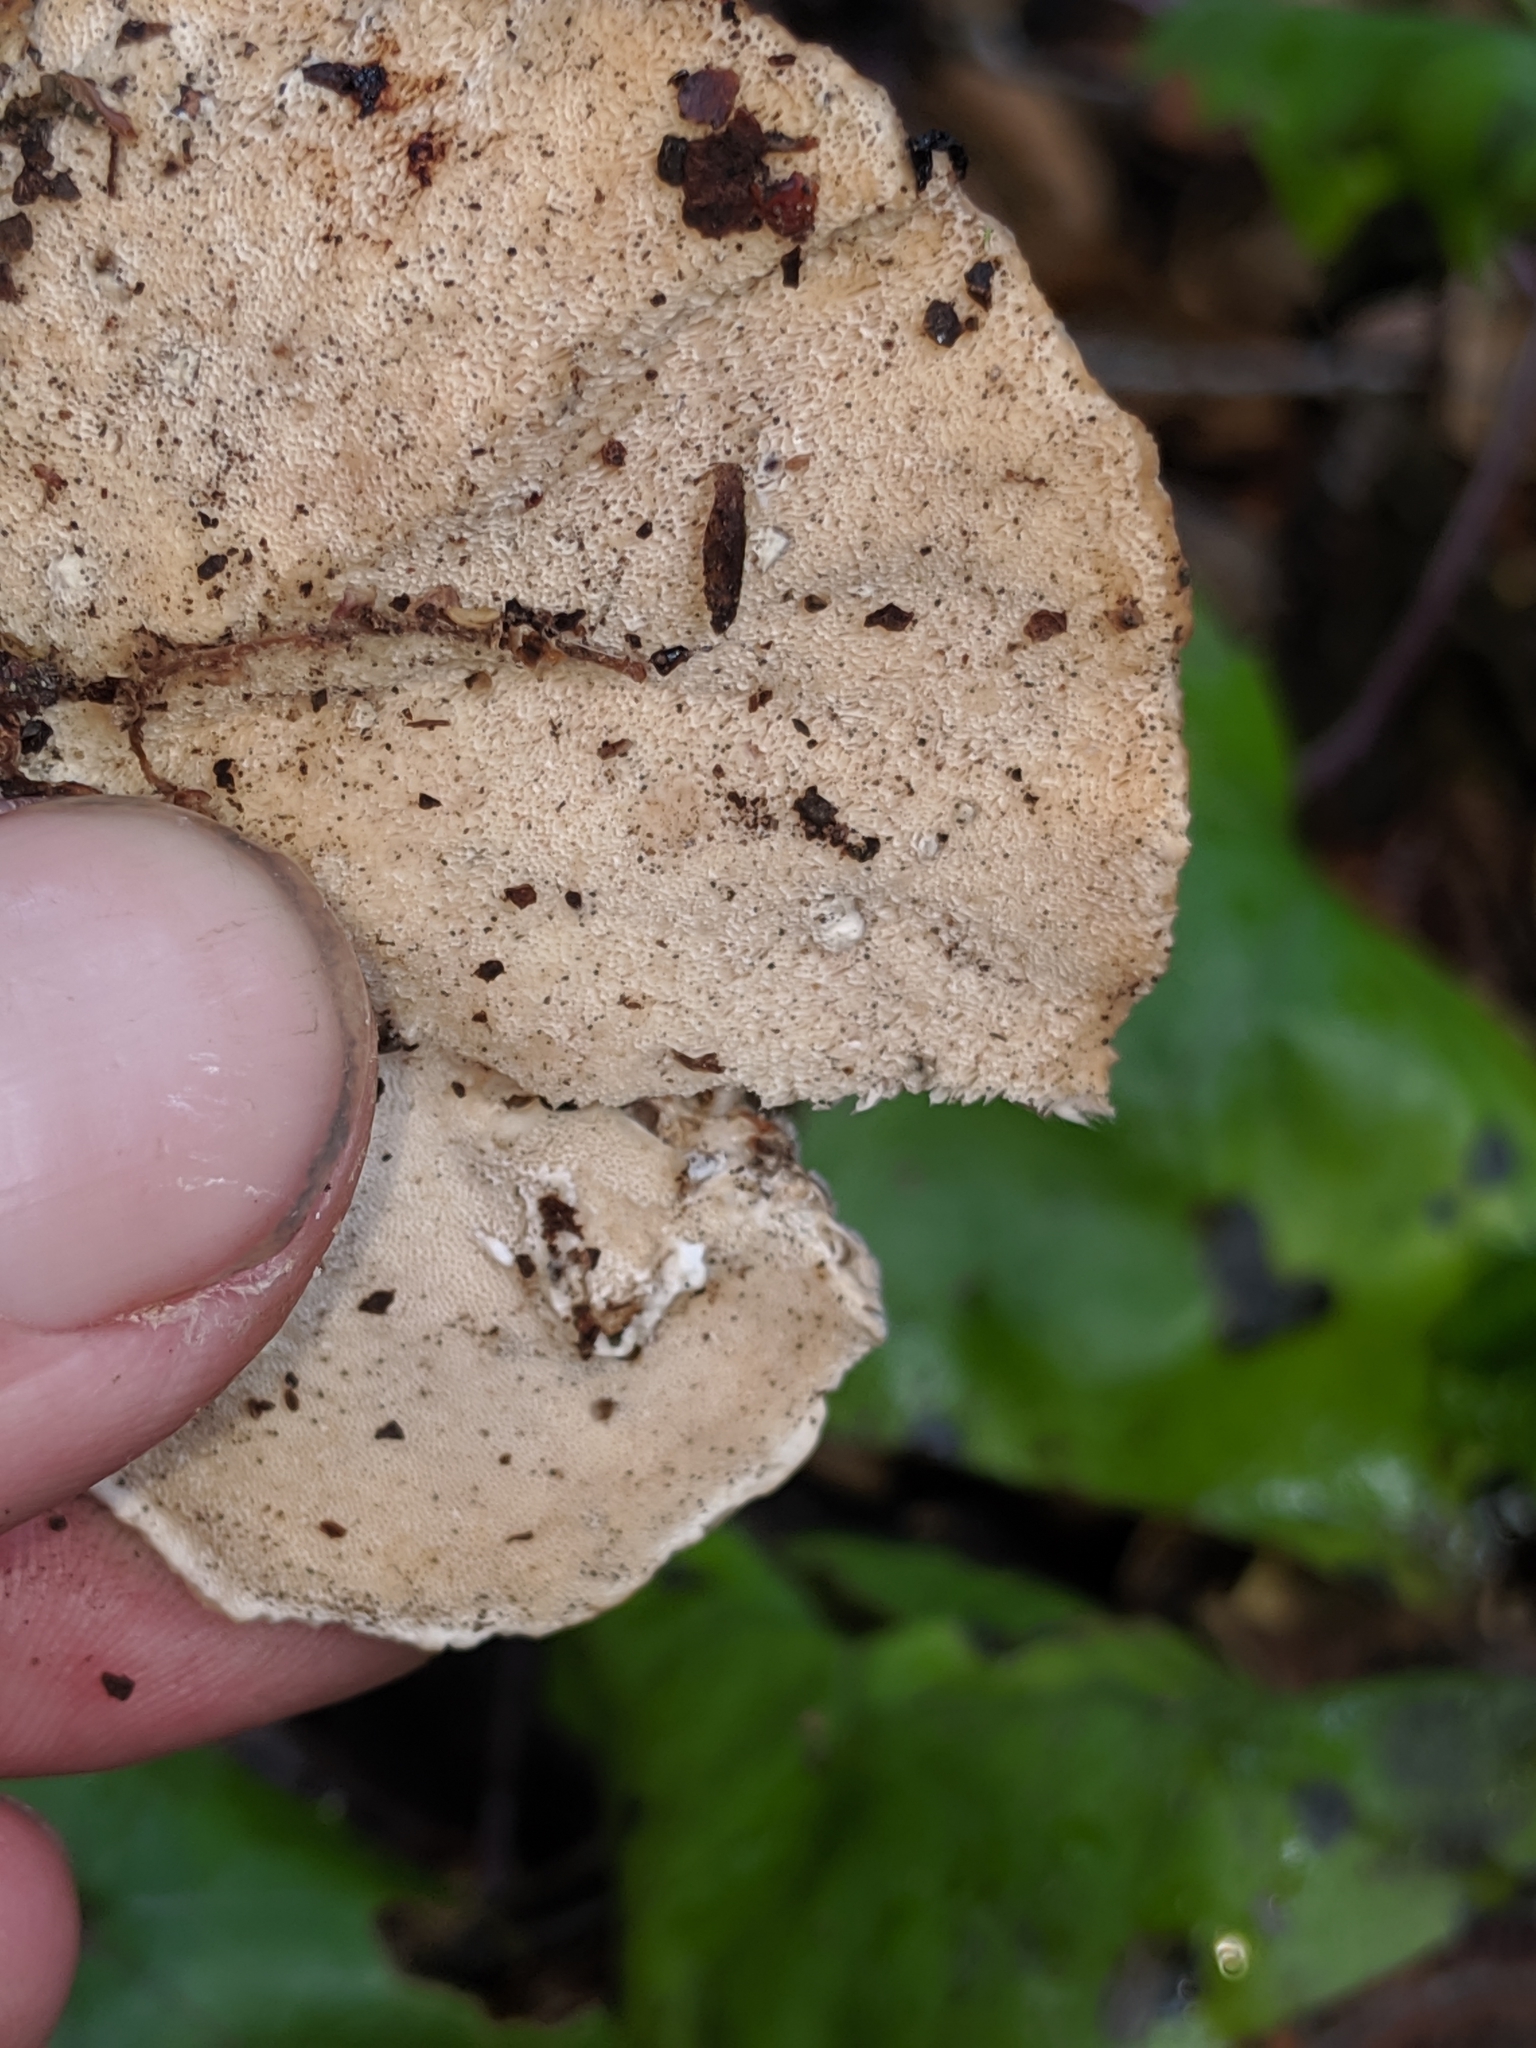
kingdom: Fungi
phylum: Basidiomycota
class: Agaricomycetes
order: Polyporales
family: Polyporaceae
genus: Trametes
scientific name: Trametes versicolor
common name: Turkeytail
